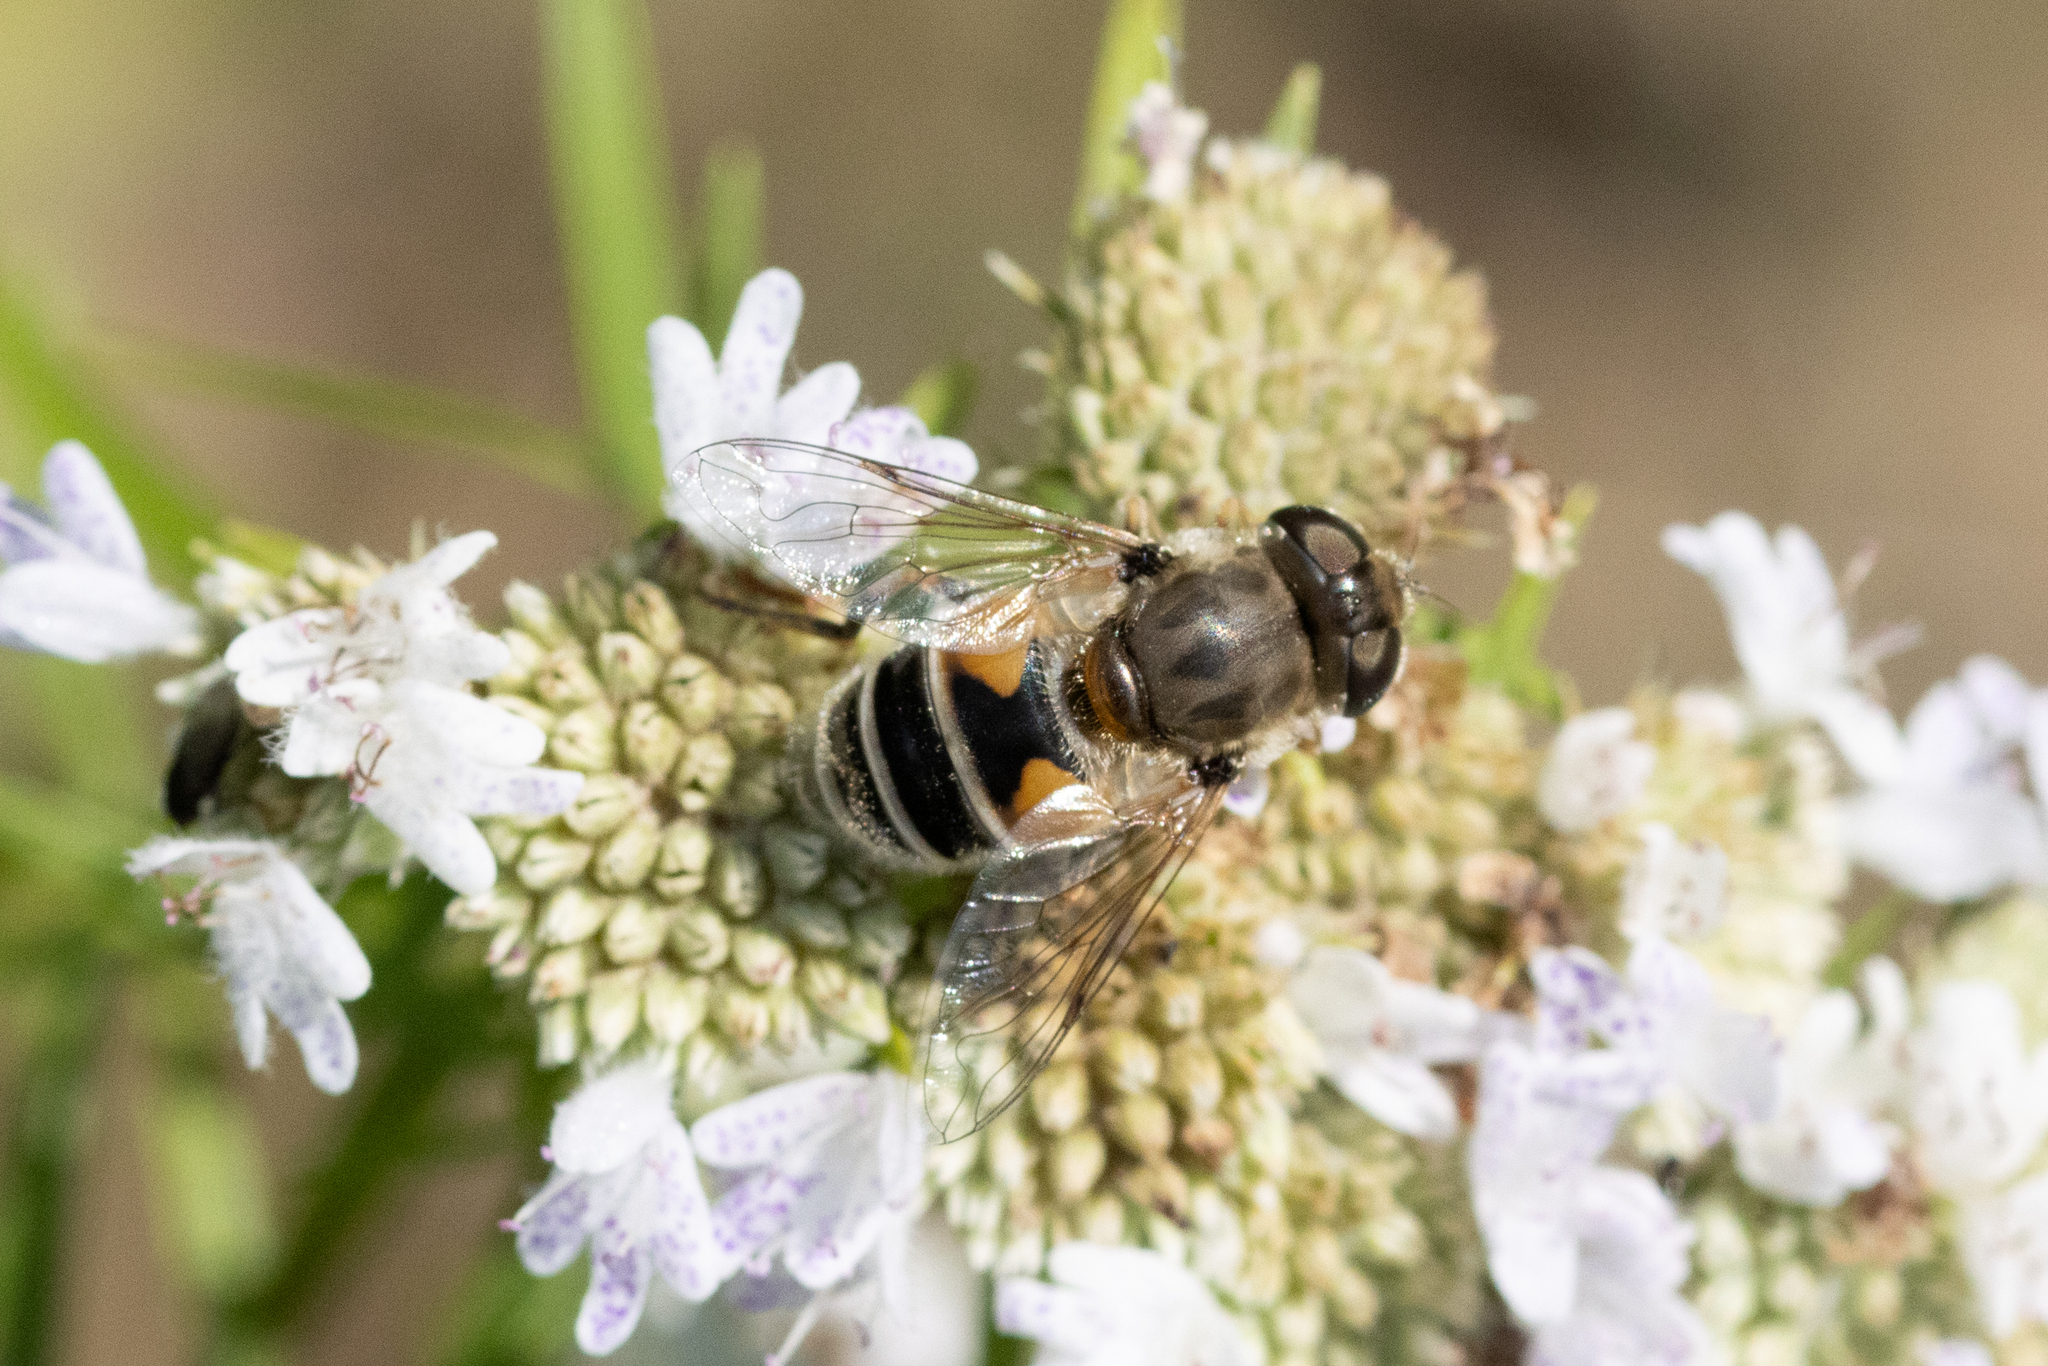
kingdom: Animalia
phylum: Arthropoda
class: Insecta
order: Diptera
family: Syrphidae
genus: Eristalis
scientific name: Eristalis arbustorum
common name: Hover fly
